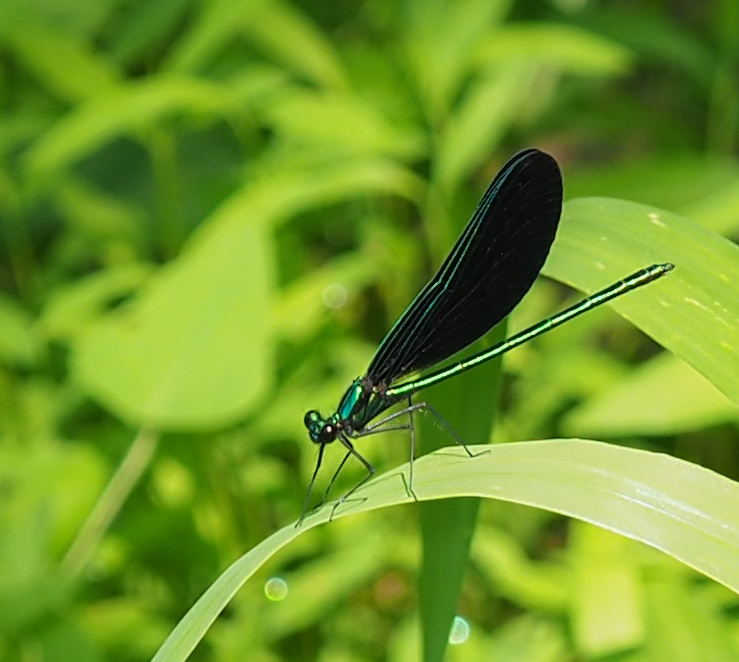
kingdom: Animalia
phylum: Arthropoda
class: Insecta
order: Odonata
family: Calopterygidae
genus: Calopteryx
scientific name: Calopteryx maculata
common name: Ebony jewelwing
